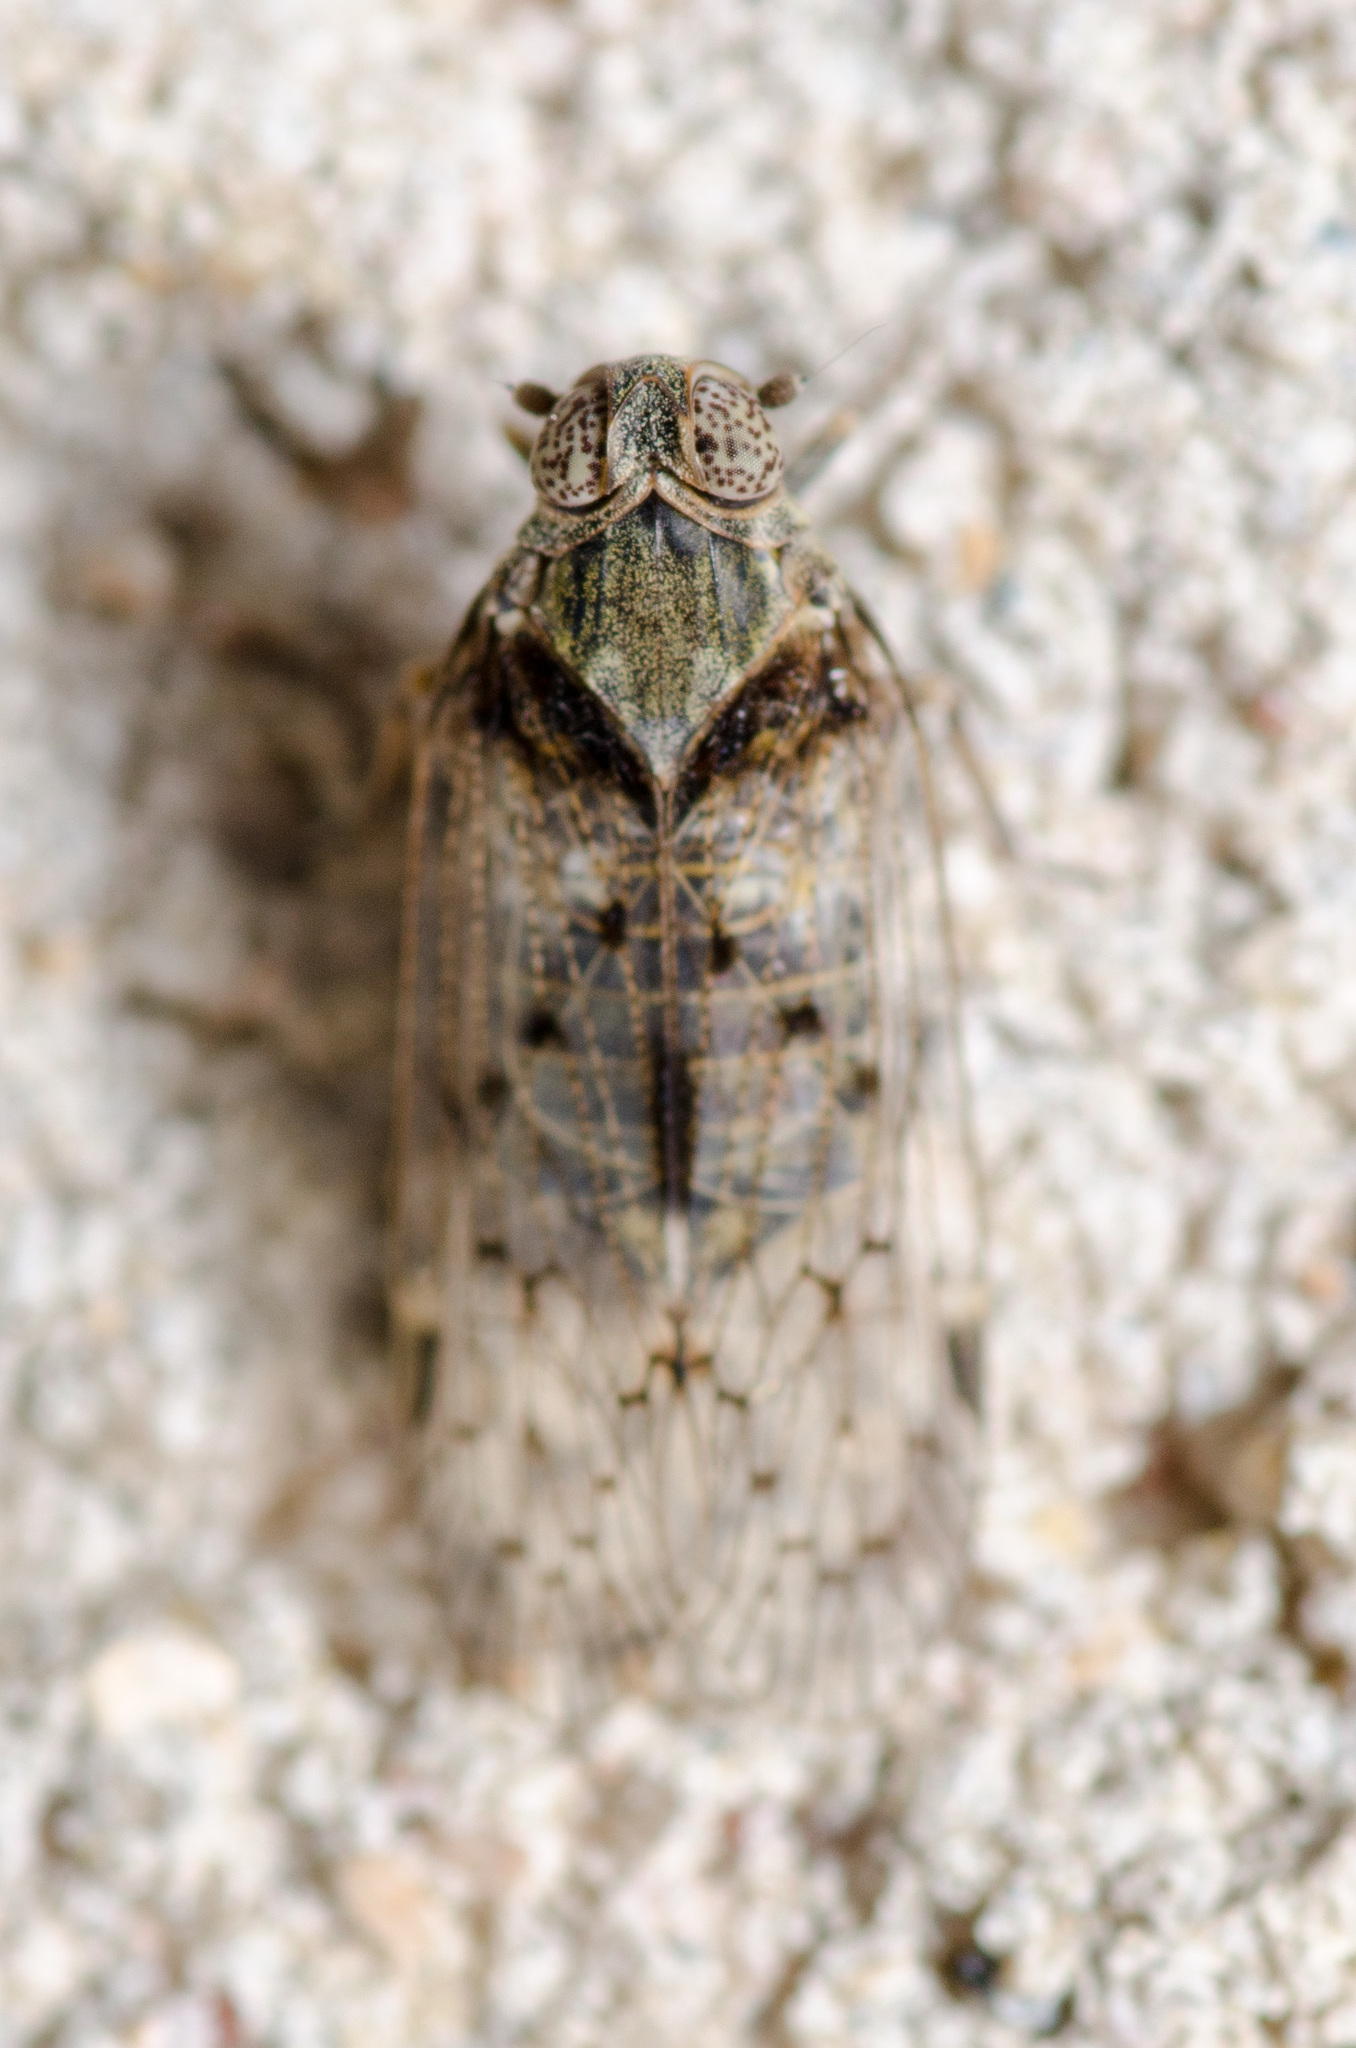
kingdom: Animalia
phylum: Arthropoda
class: Insecta
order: Hemiptera
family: Cixiidae
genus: Melanoliarus
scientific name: Melanoliarus aridus
